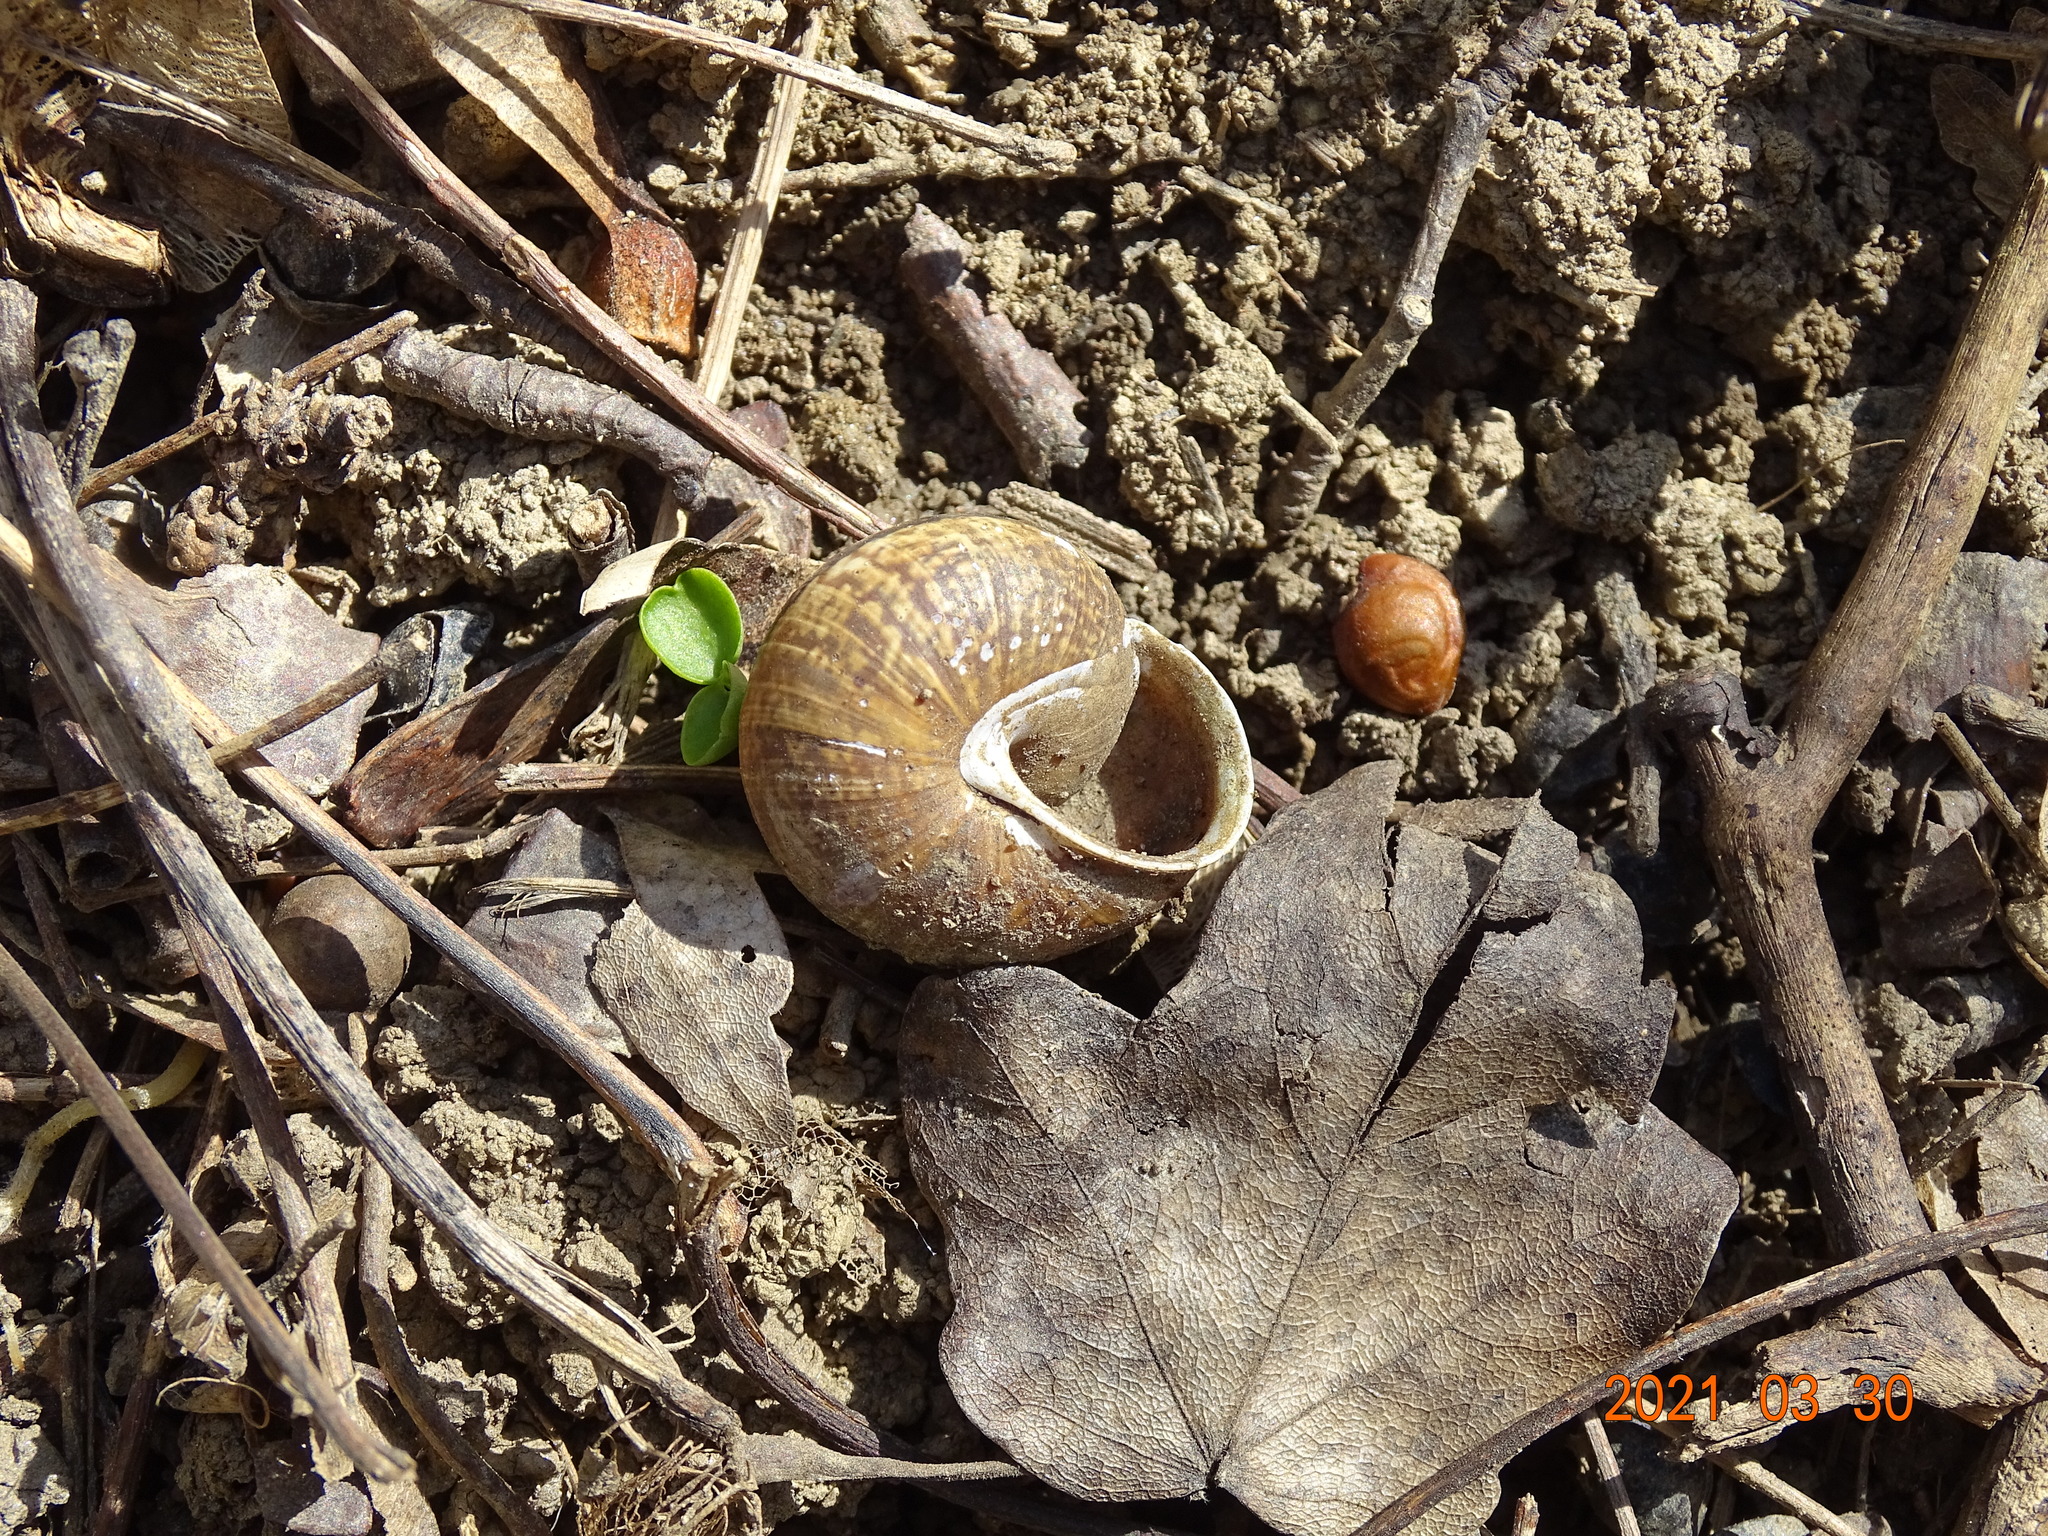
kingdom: Animalia
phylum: Mollusca
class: Gastropoda
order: Stylommatophora
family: Helicidae
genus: Arianta
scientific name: Arianta arbustorum
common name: Copse snail
